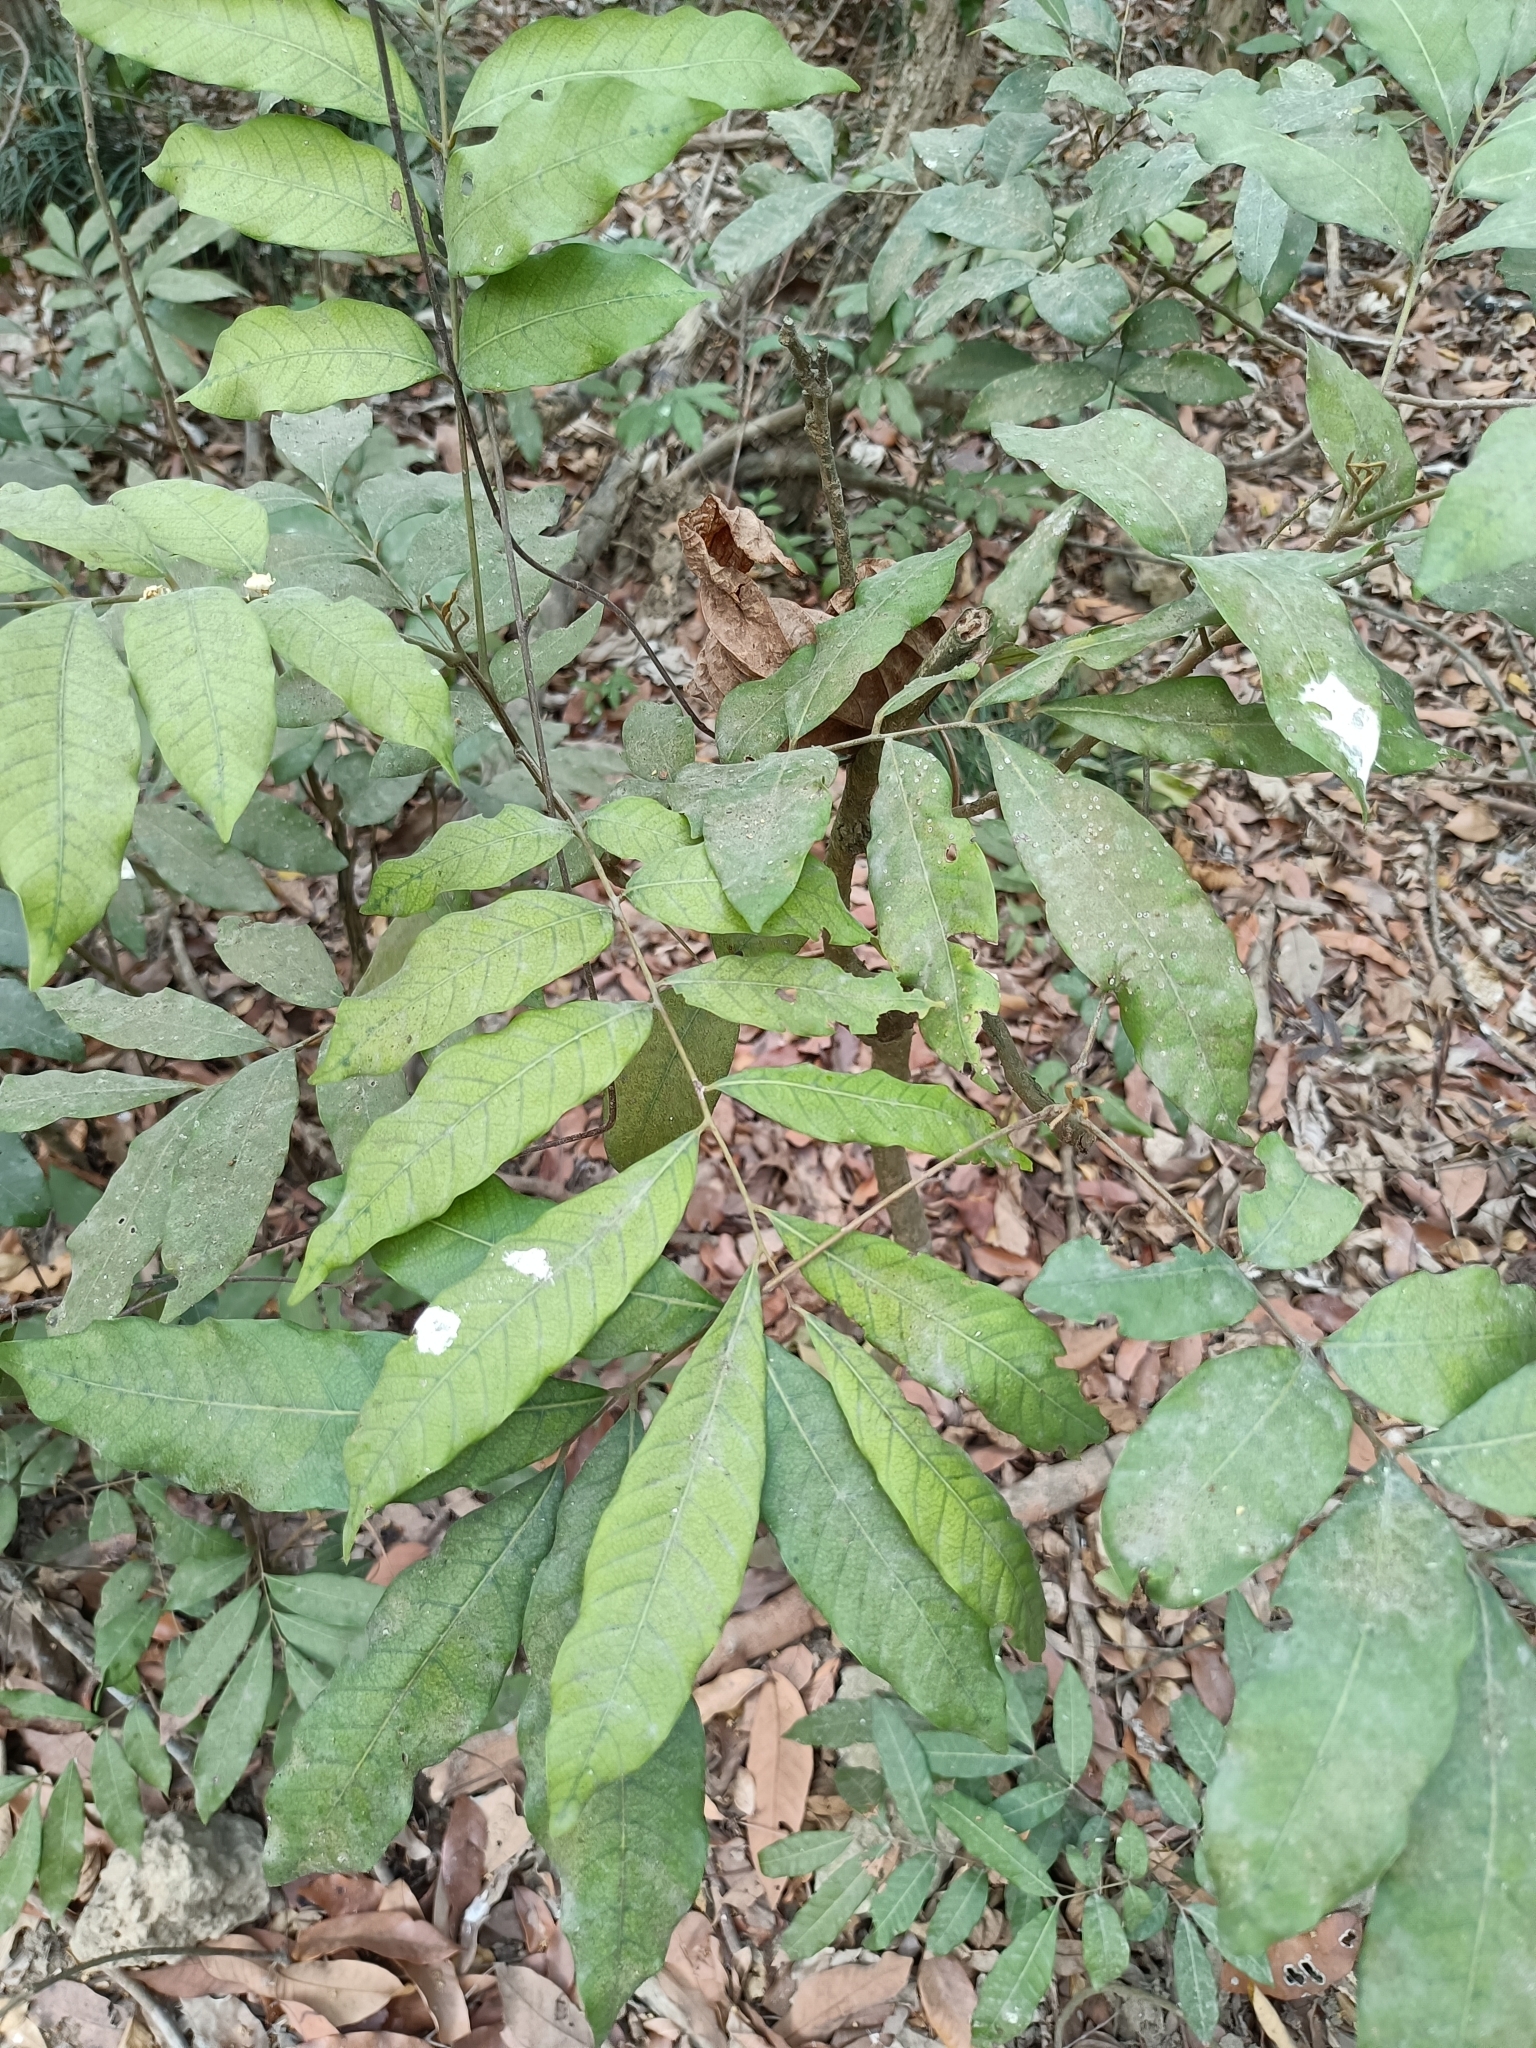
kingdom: Plantae
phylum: Tracheophyta
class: Magnoliopsida
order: Sapindales
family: Sapindaceae
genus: Dimocarpus
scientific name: Dimocarpus longan
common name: Longan
